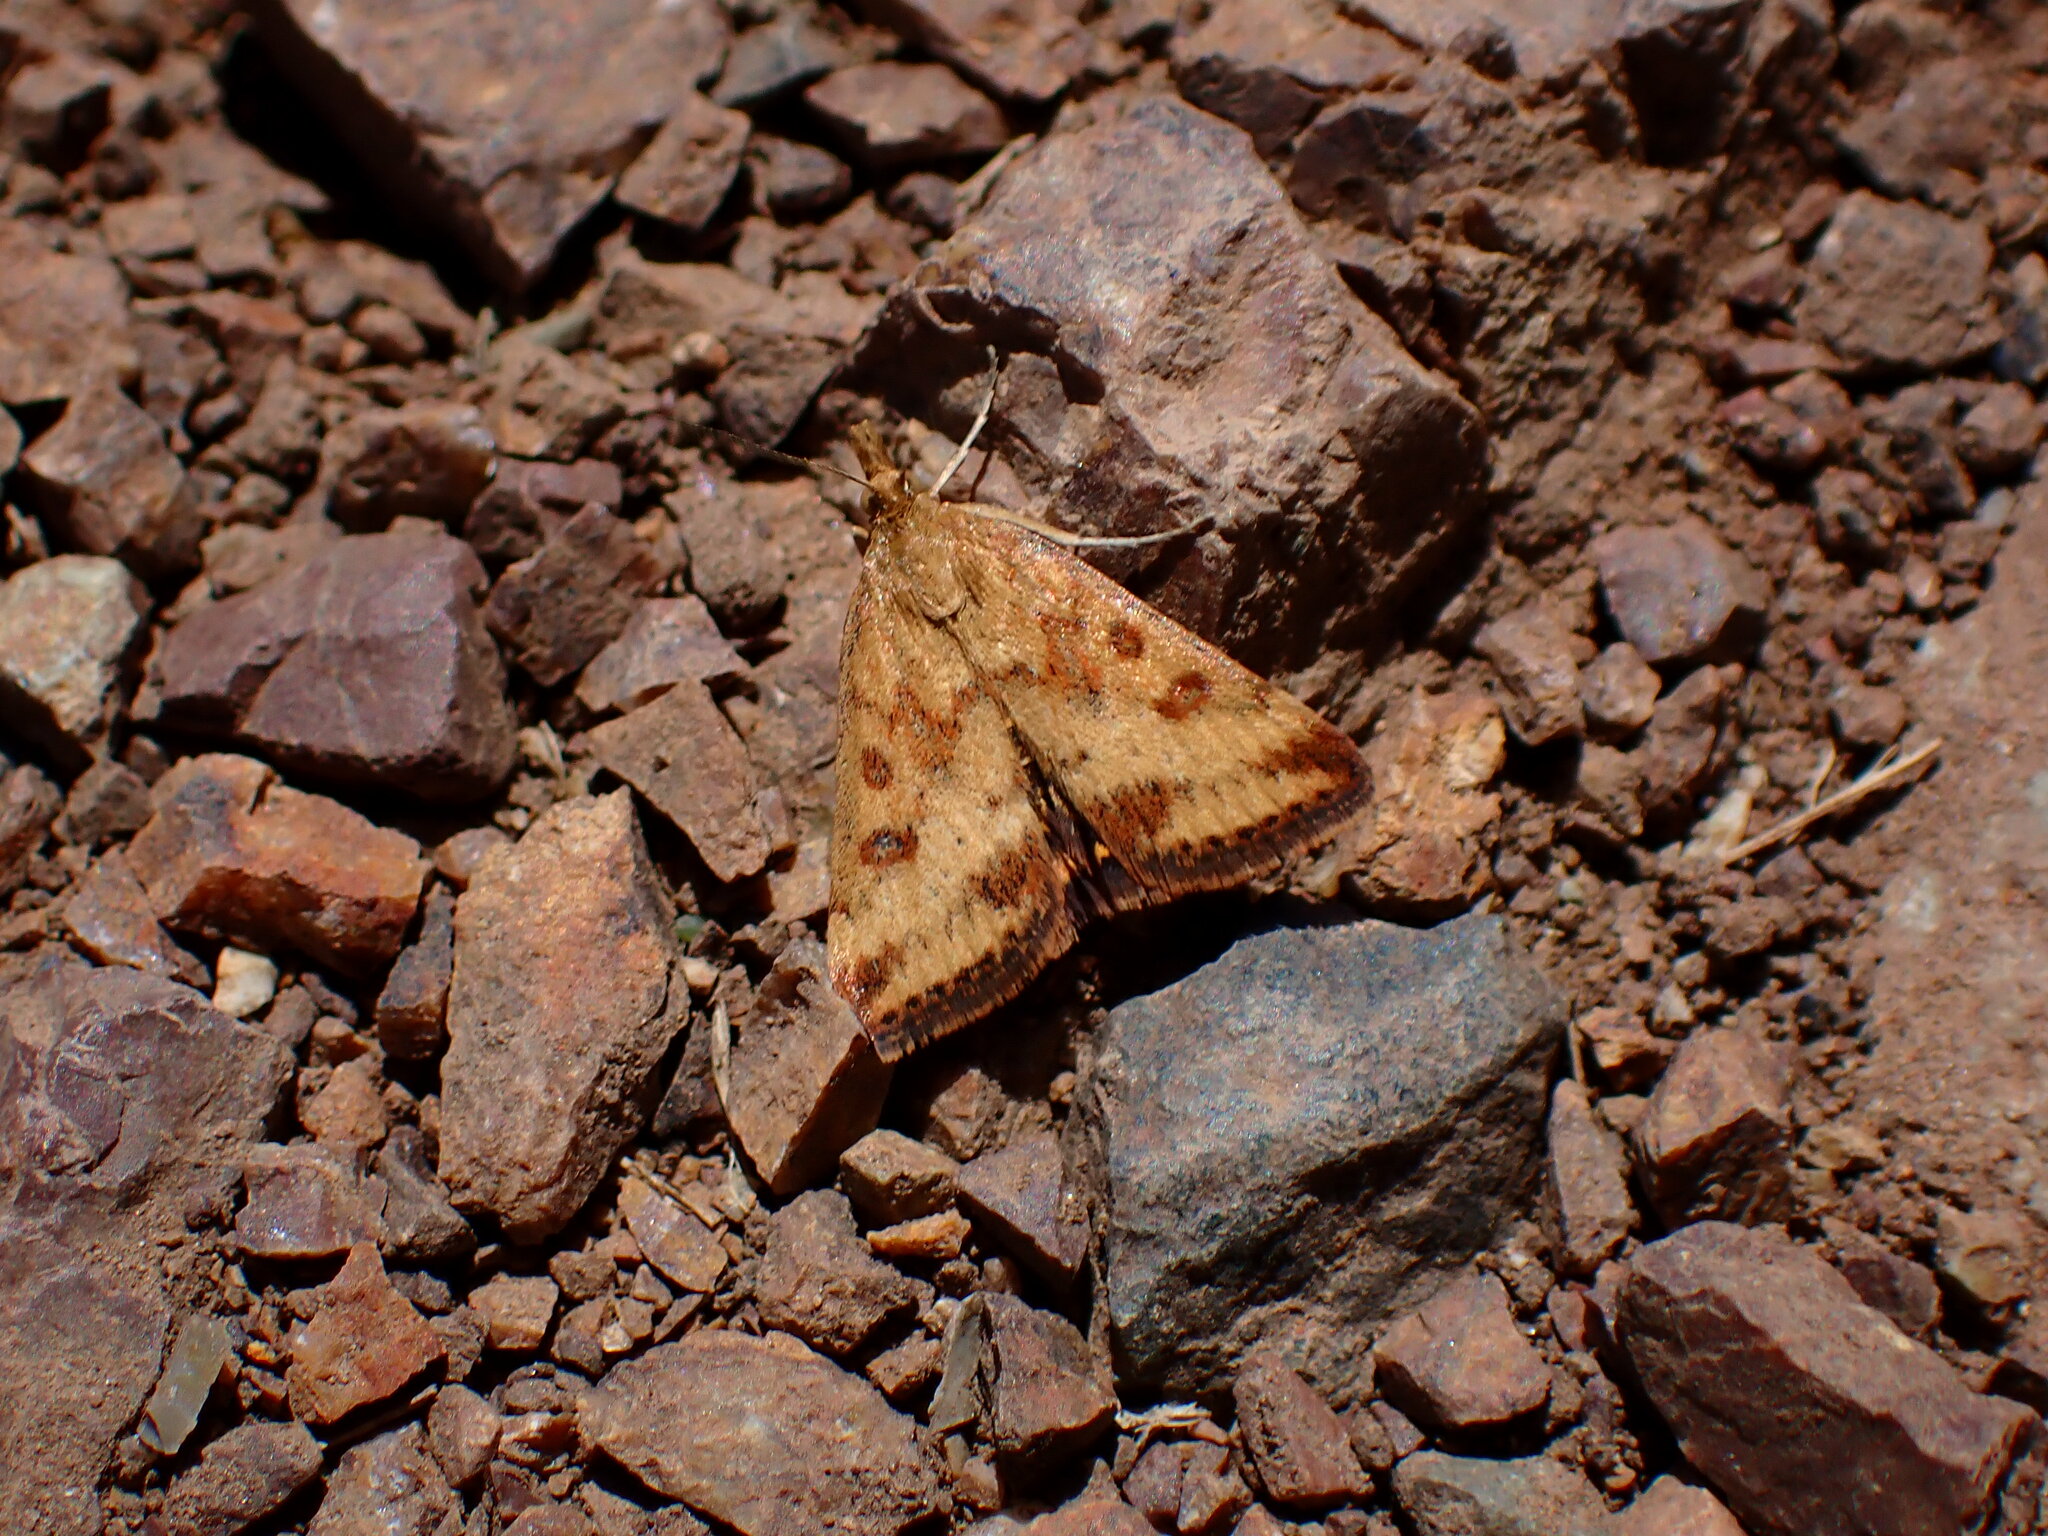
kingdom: Animalia
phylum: Arthropoda
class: Insecta
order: Lepidoptera
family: Crambidae
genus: Pyrausta
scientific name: Pyrausta subsequalis
